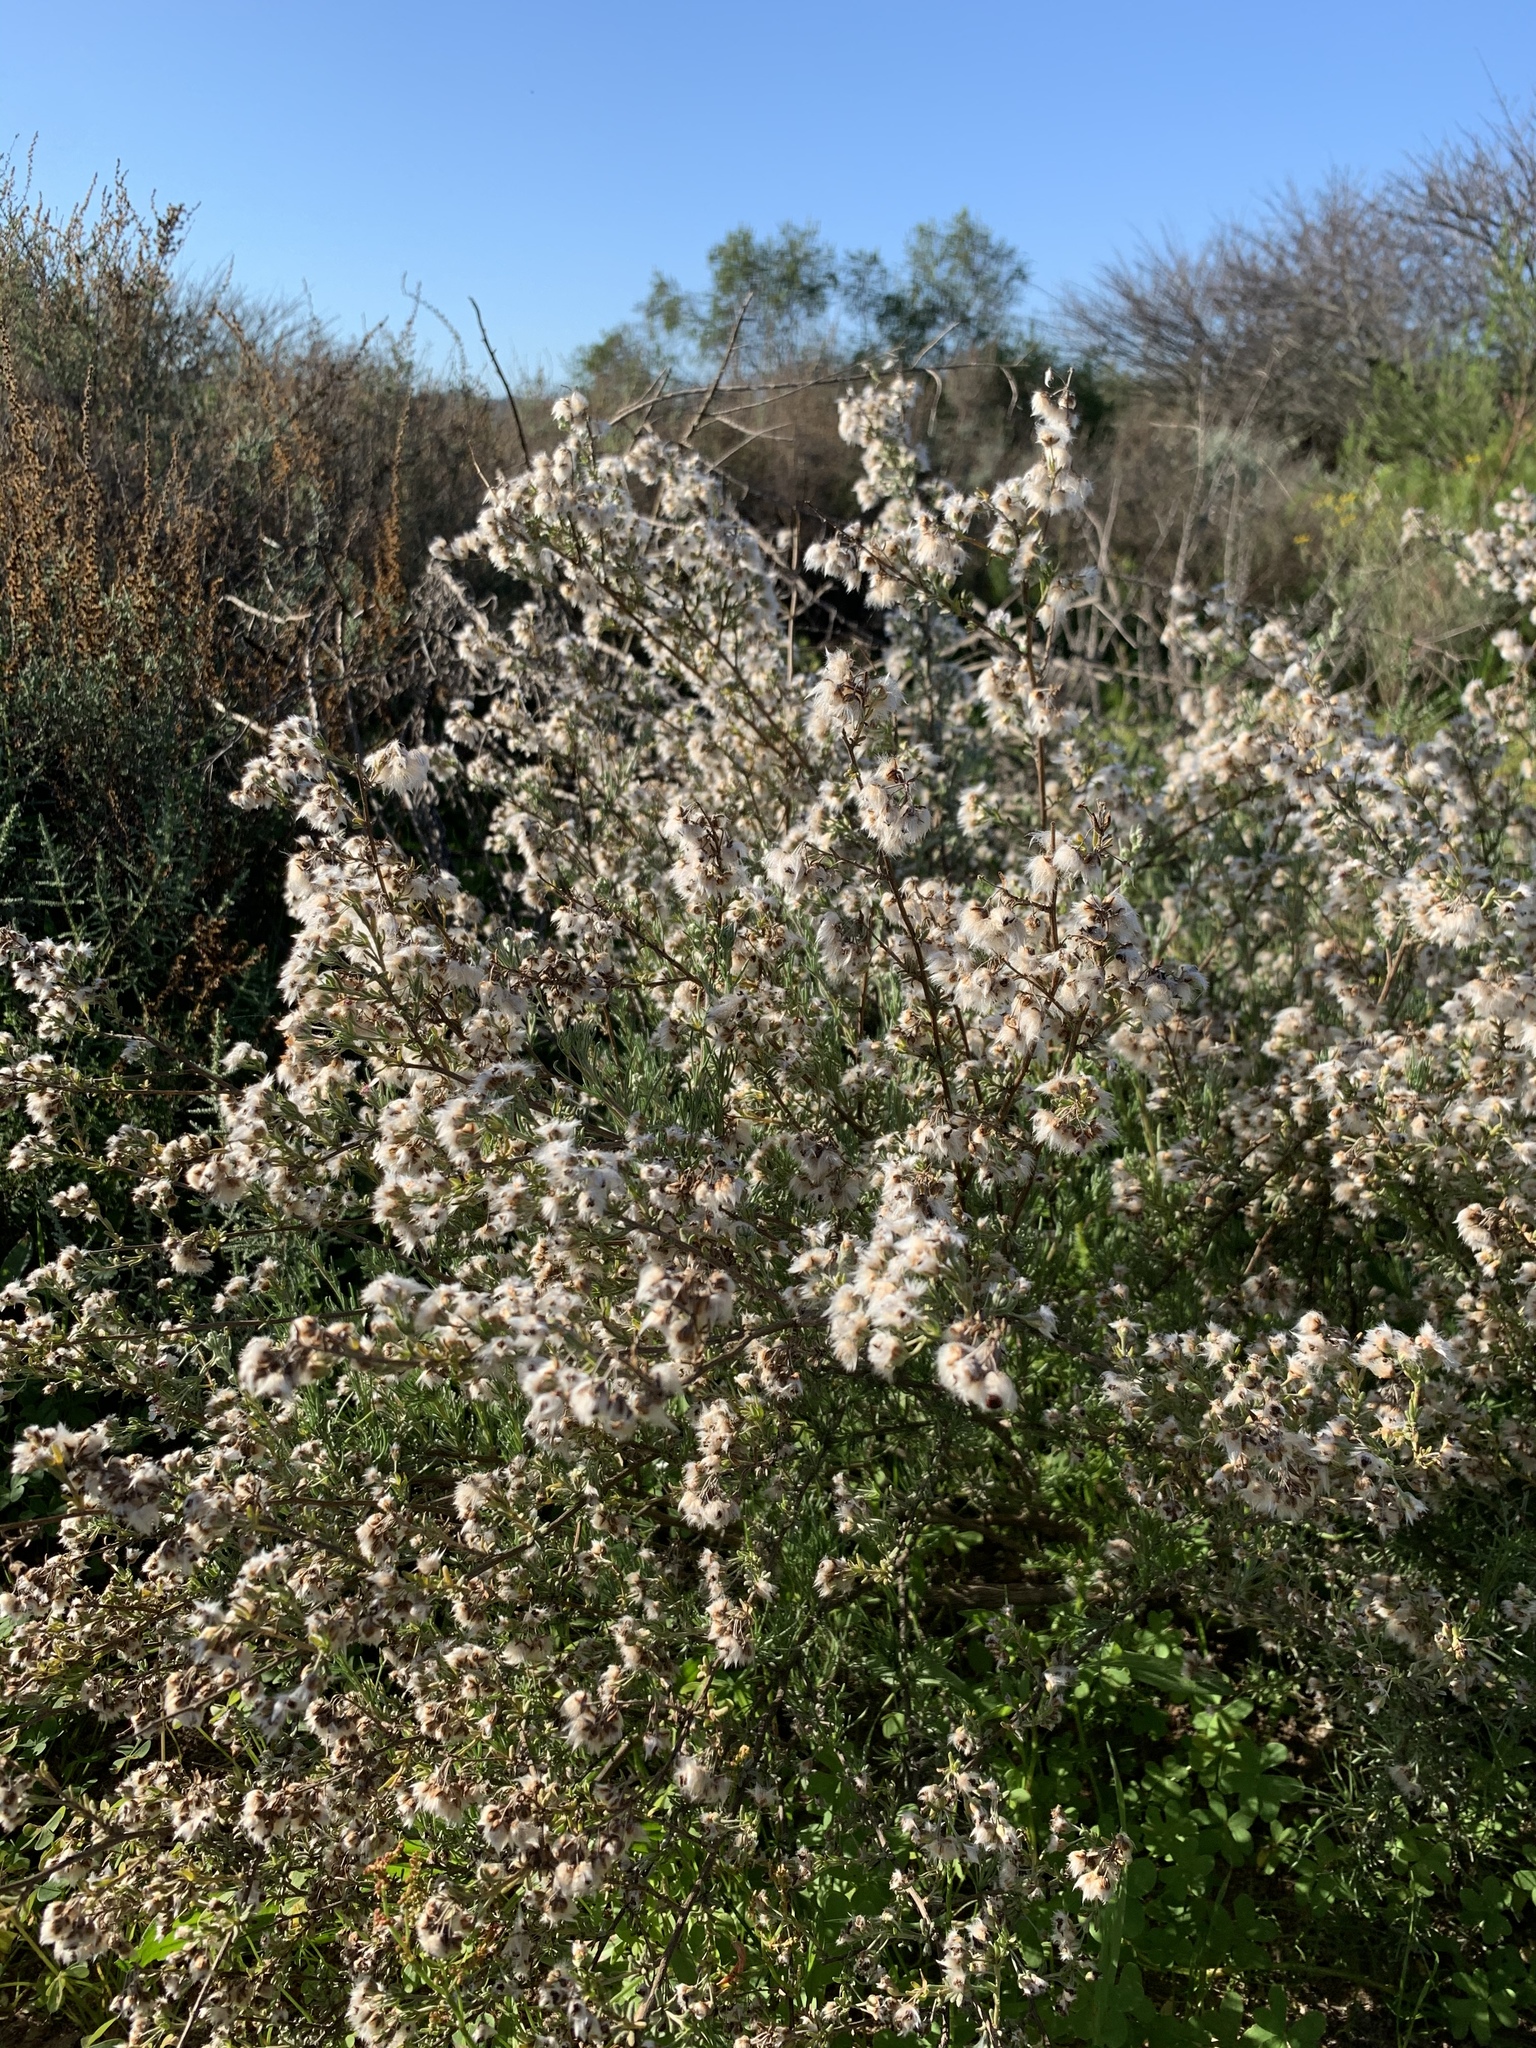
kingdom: Plantae
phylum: Tracheophyta
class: Magnoliopsida
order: Asterales
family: Asteraceae
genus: Eriocephalus
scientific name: Eriocephalus africanus
